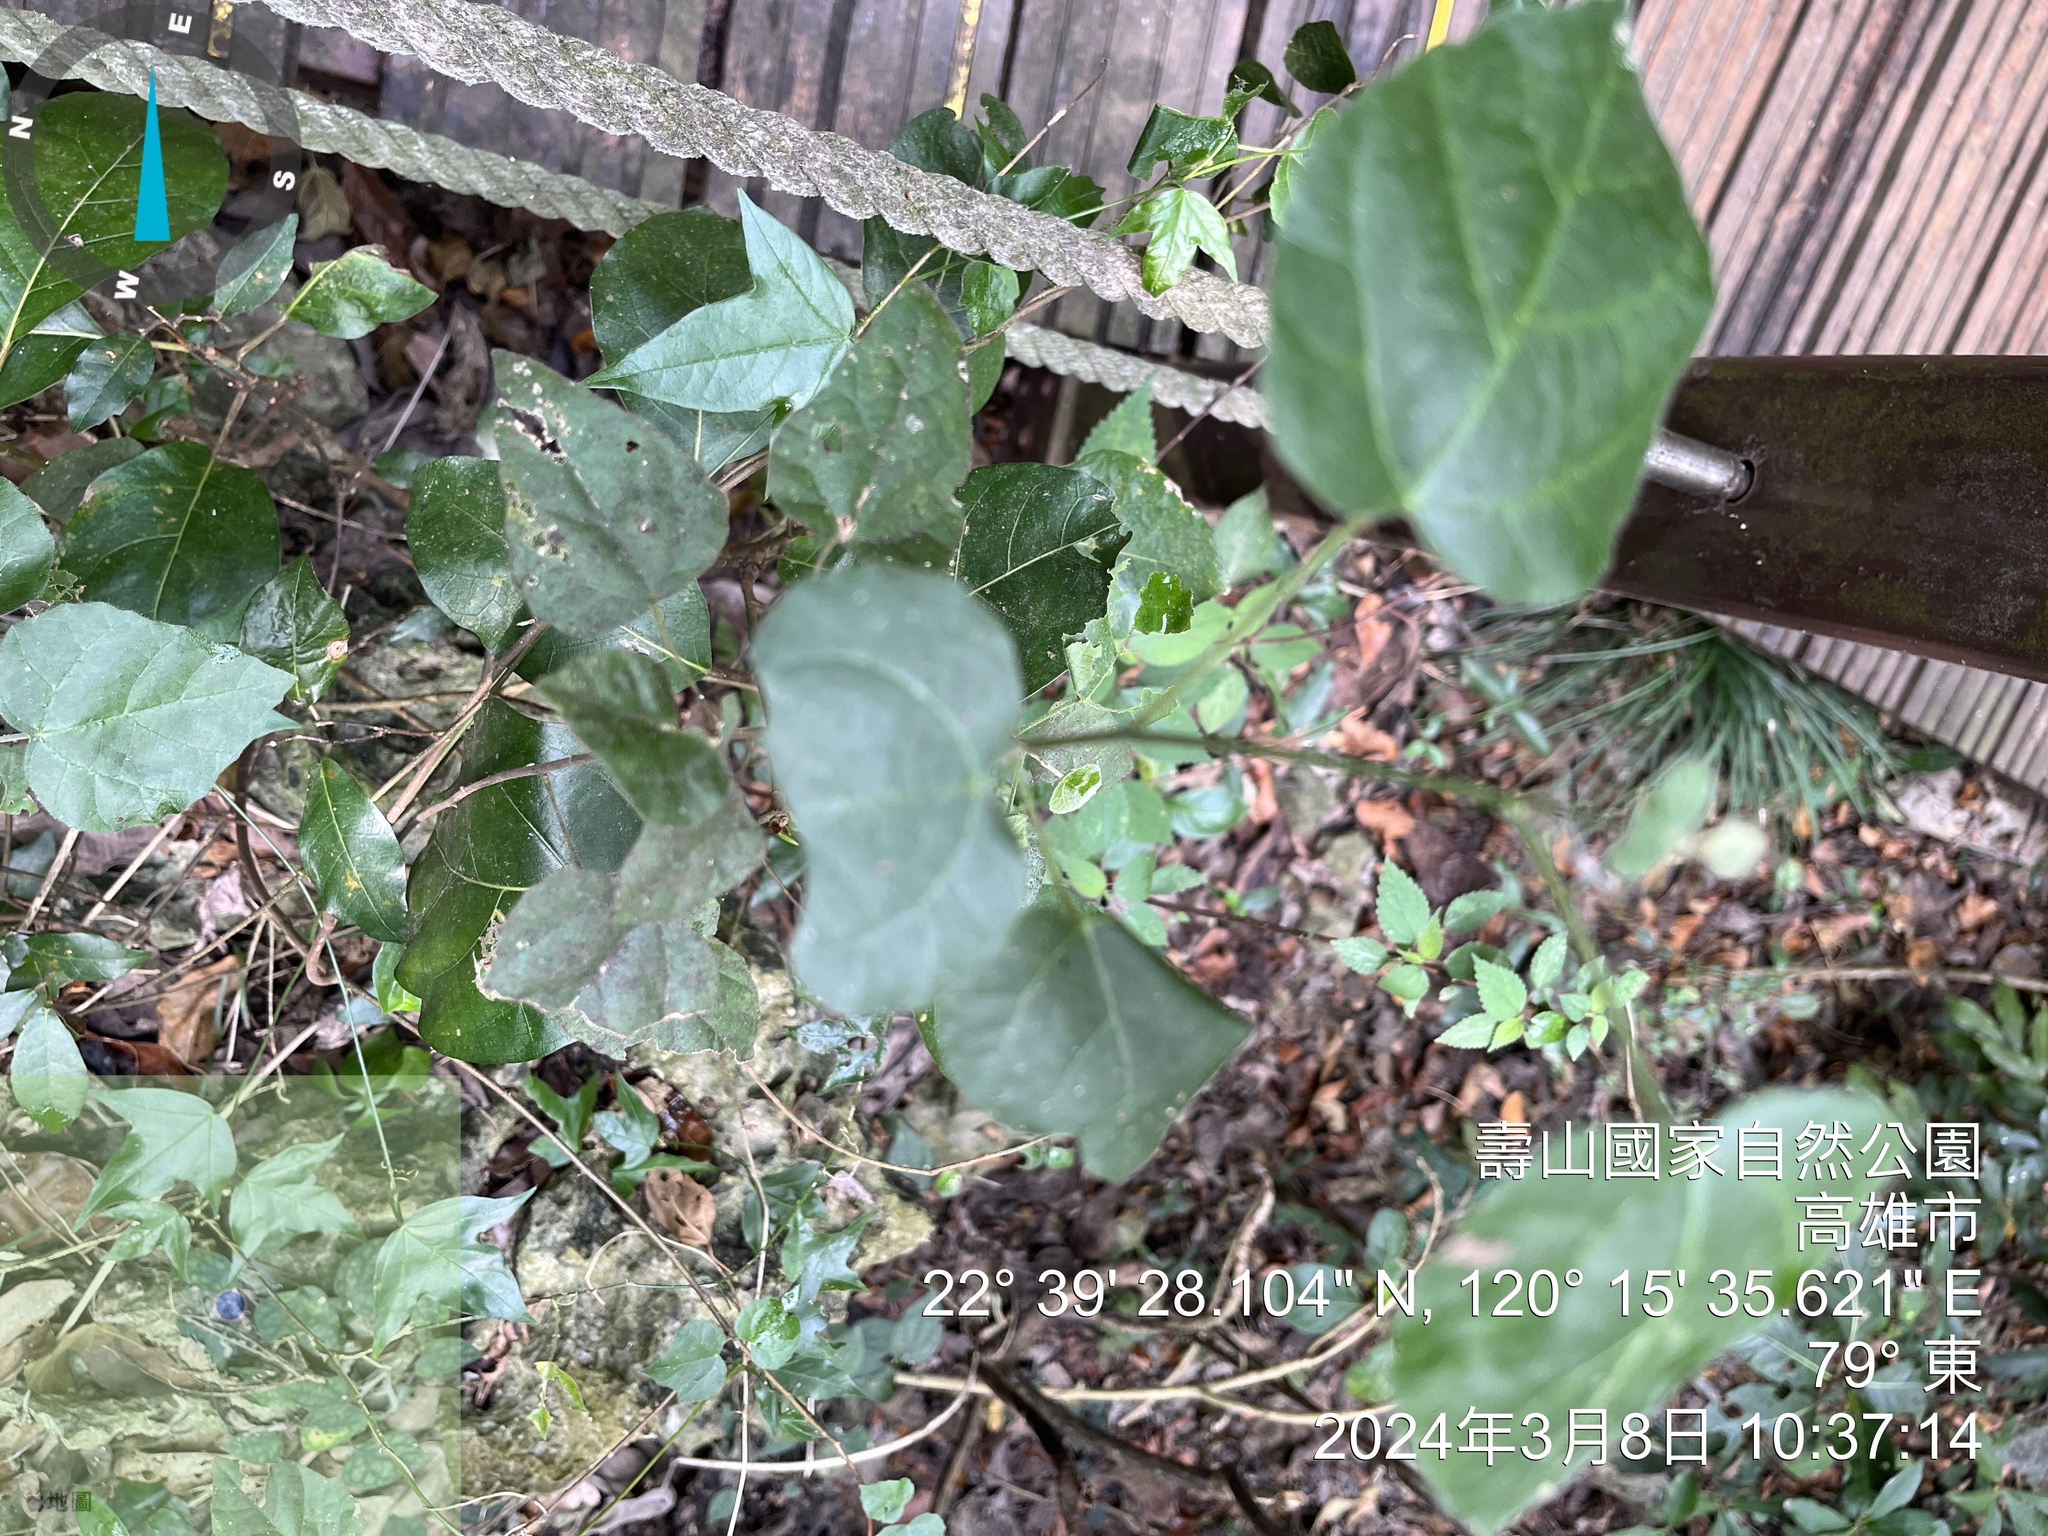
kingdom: Plantae
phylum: Tracheophyta
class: Magnoliopsida
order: Malpighiales
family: Euphorbiaceae
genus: Mallotus
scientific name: Mallotus repandus
